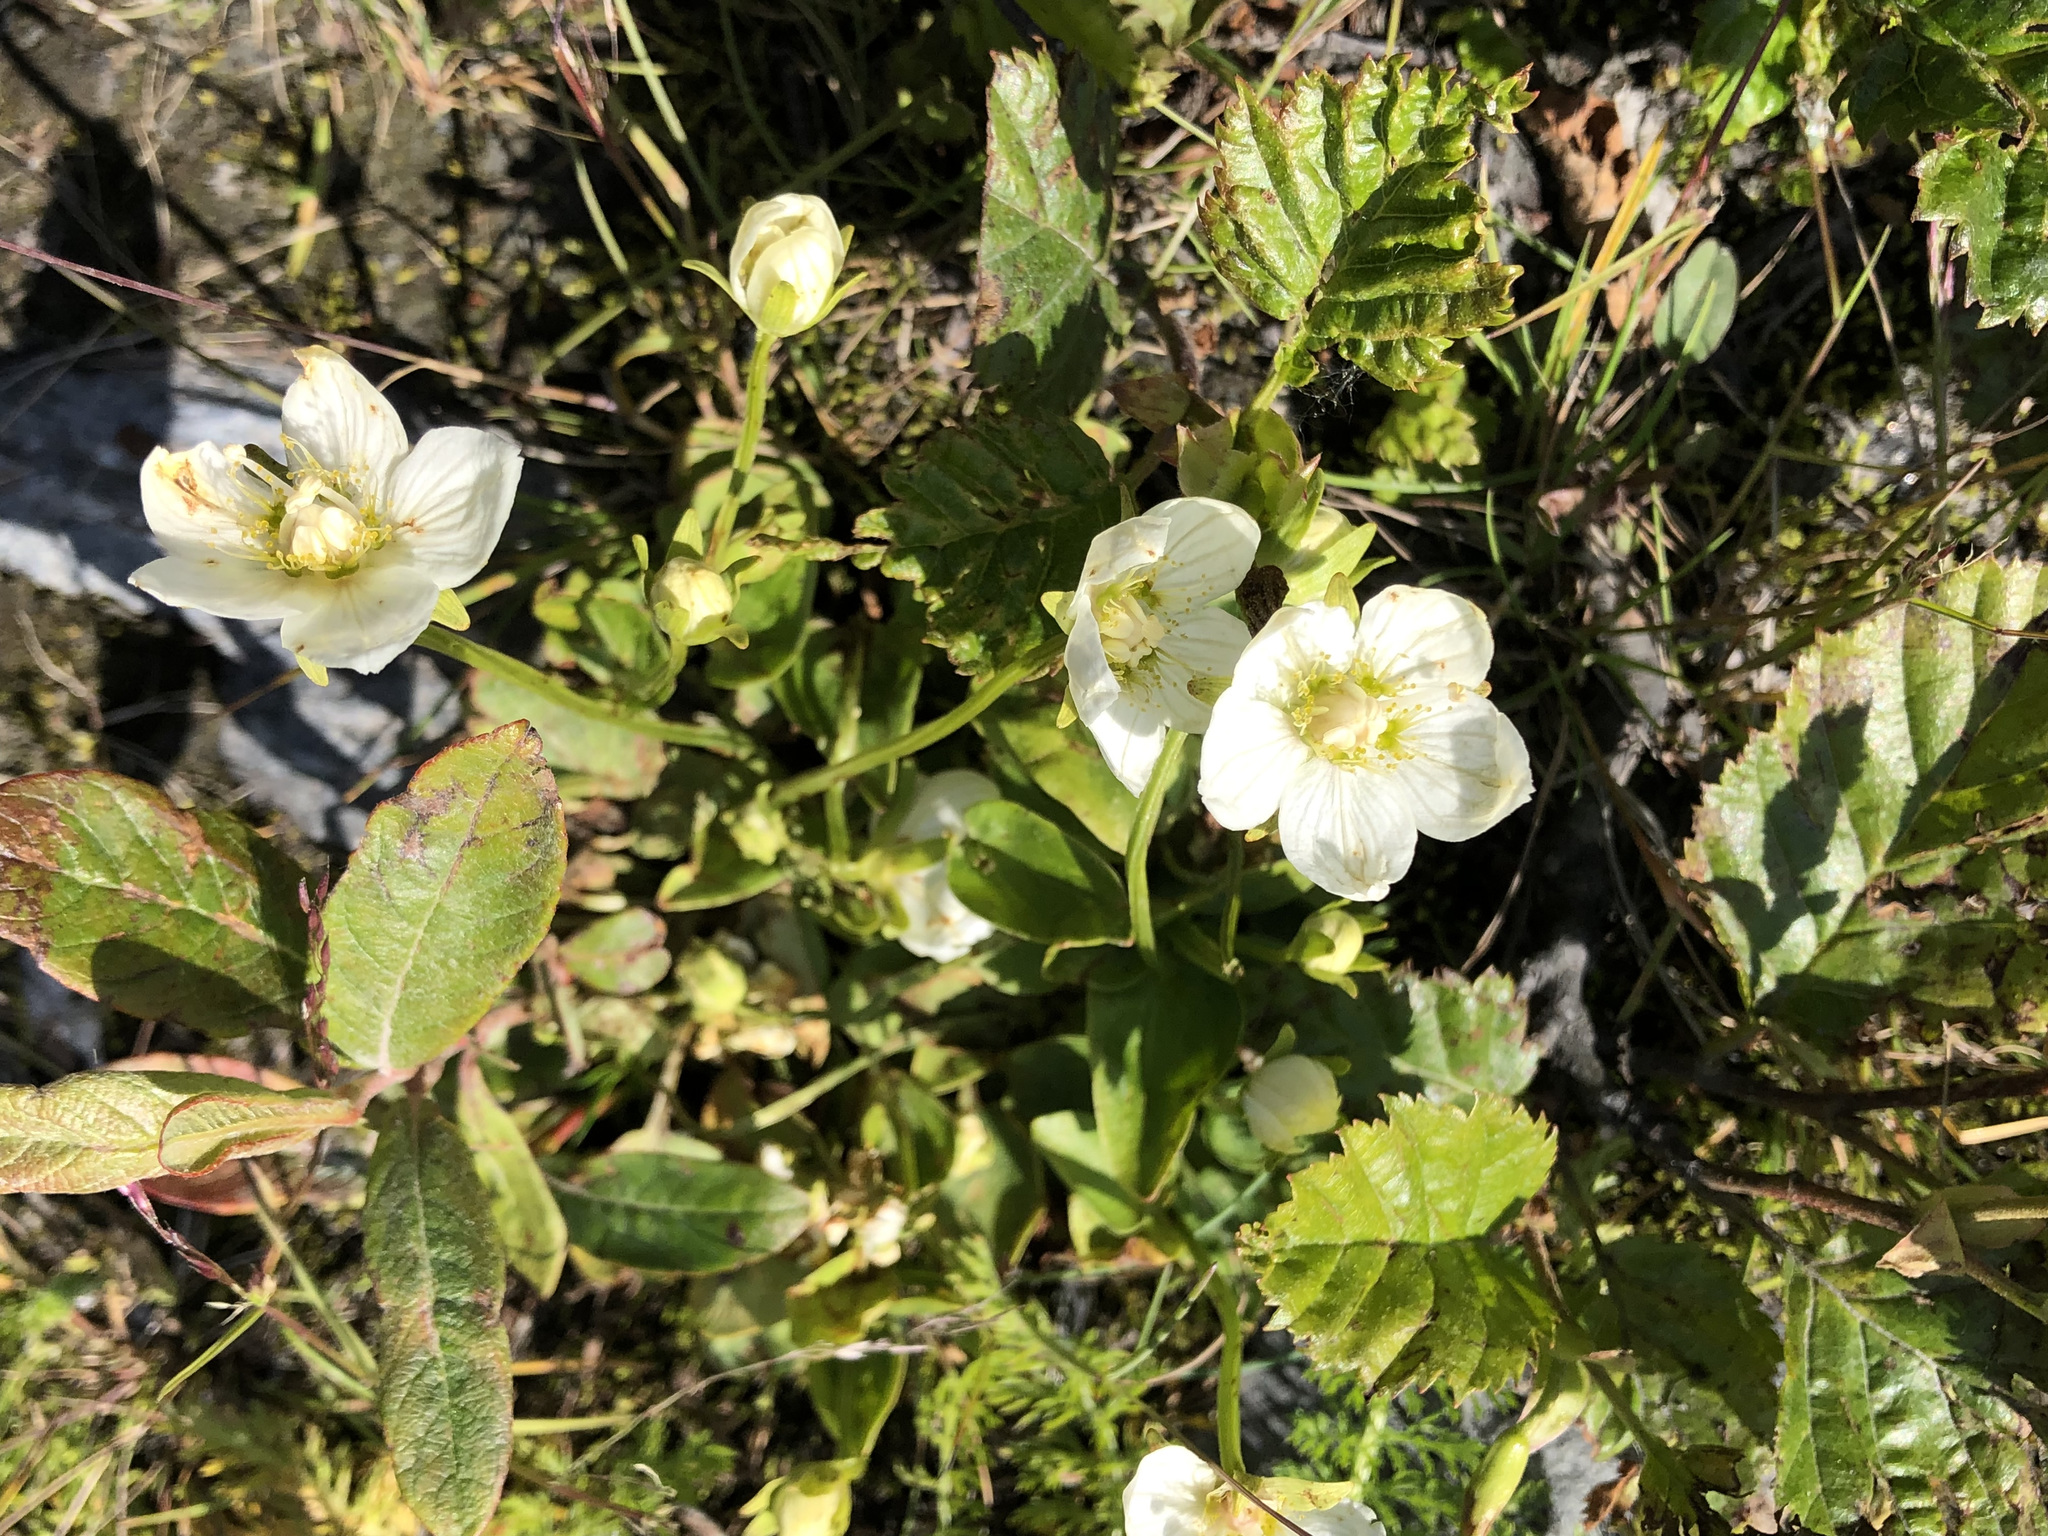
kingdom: Plantae
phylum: Tracheophyta
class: Magnoliopsida
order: Celastrales
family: Parnassiaceae
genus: Parnassia
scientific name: Parnassia palustris
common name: Grass-of-parnassus
